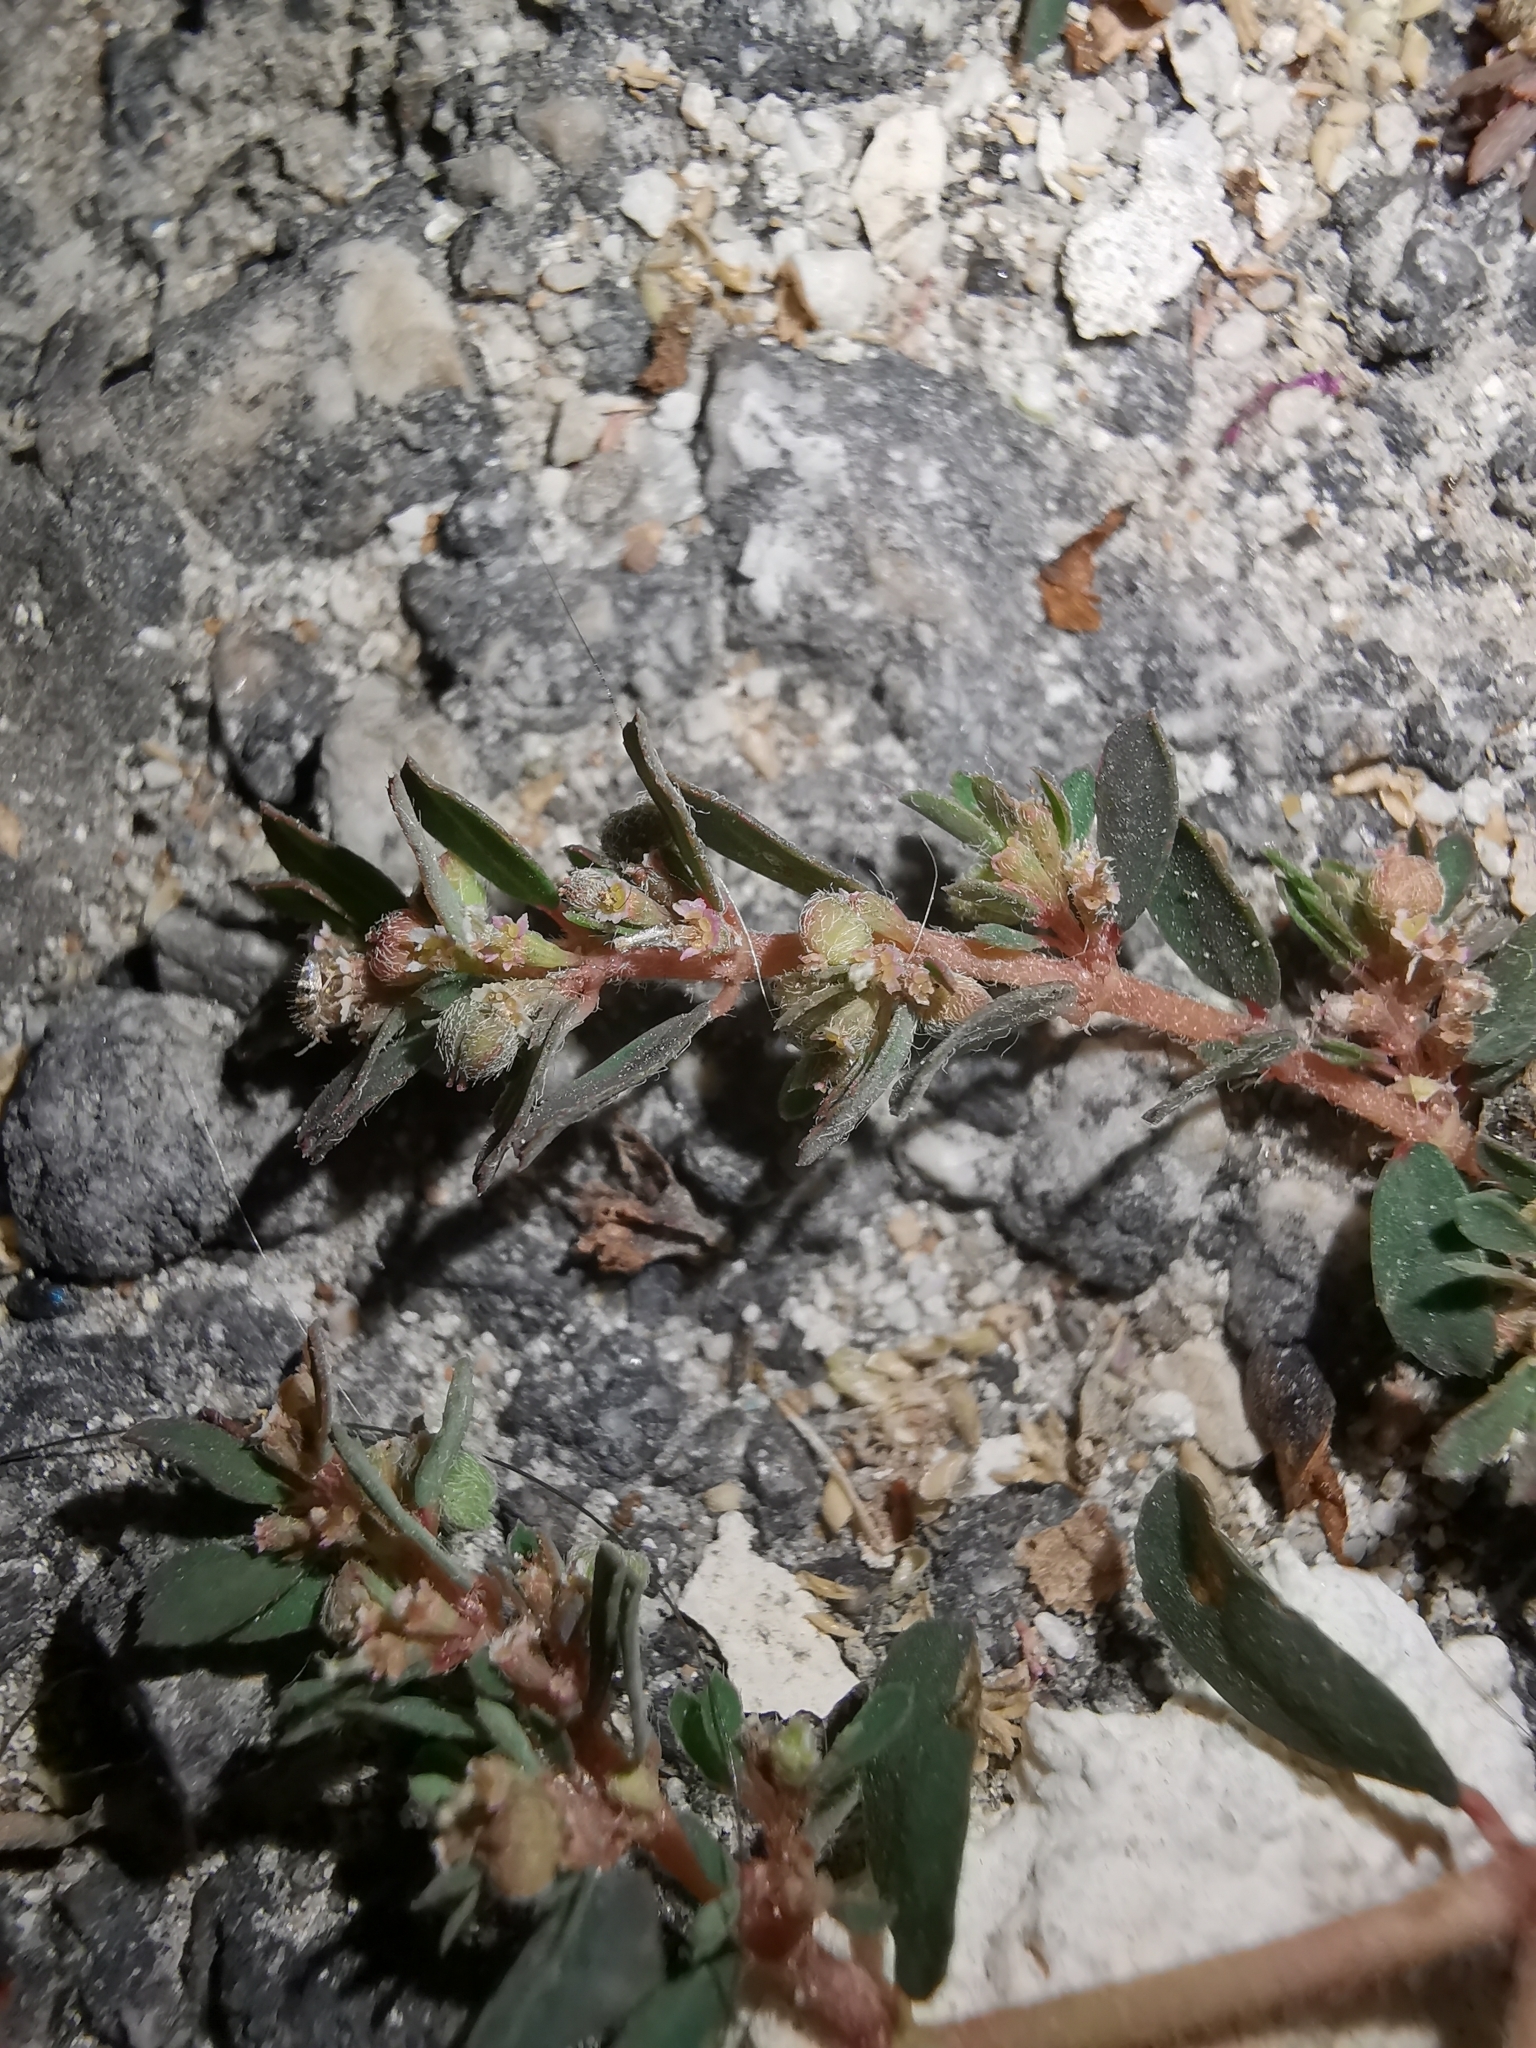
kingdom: Plantae
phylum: Tracheophyta
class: Magnoliopsida
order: Malpighiales
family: Euphorbiaceae
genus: Euphorbia
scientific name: Euphorbia maculata
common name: Spotted spurge
